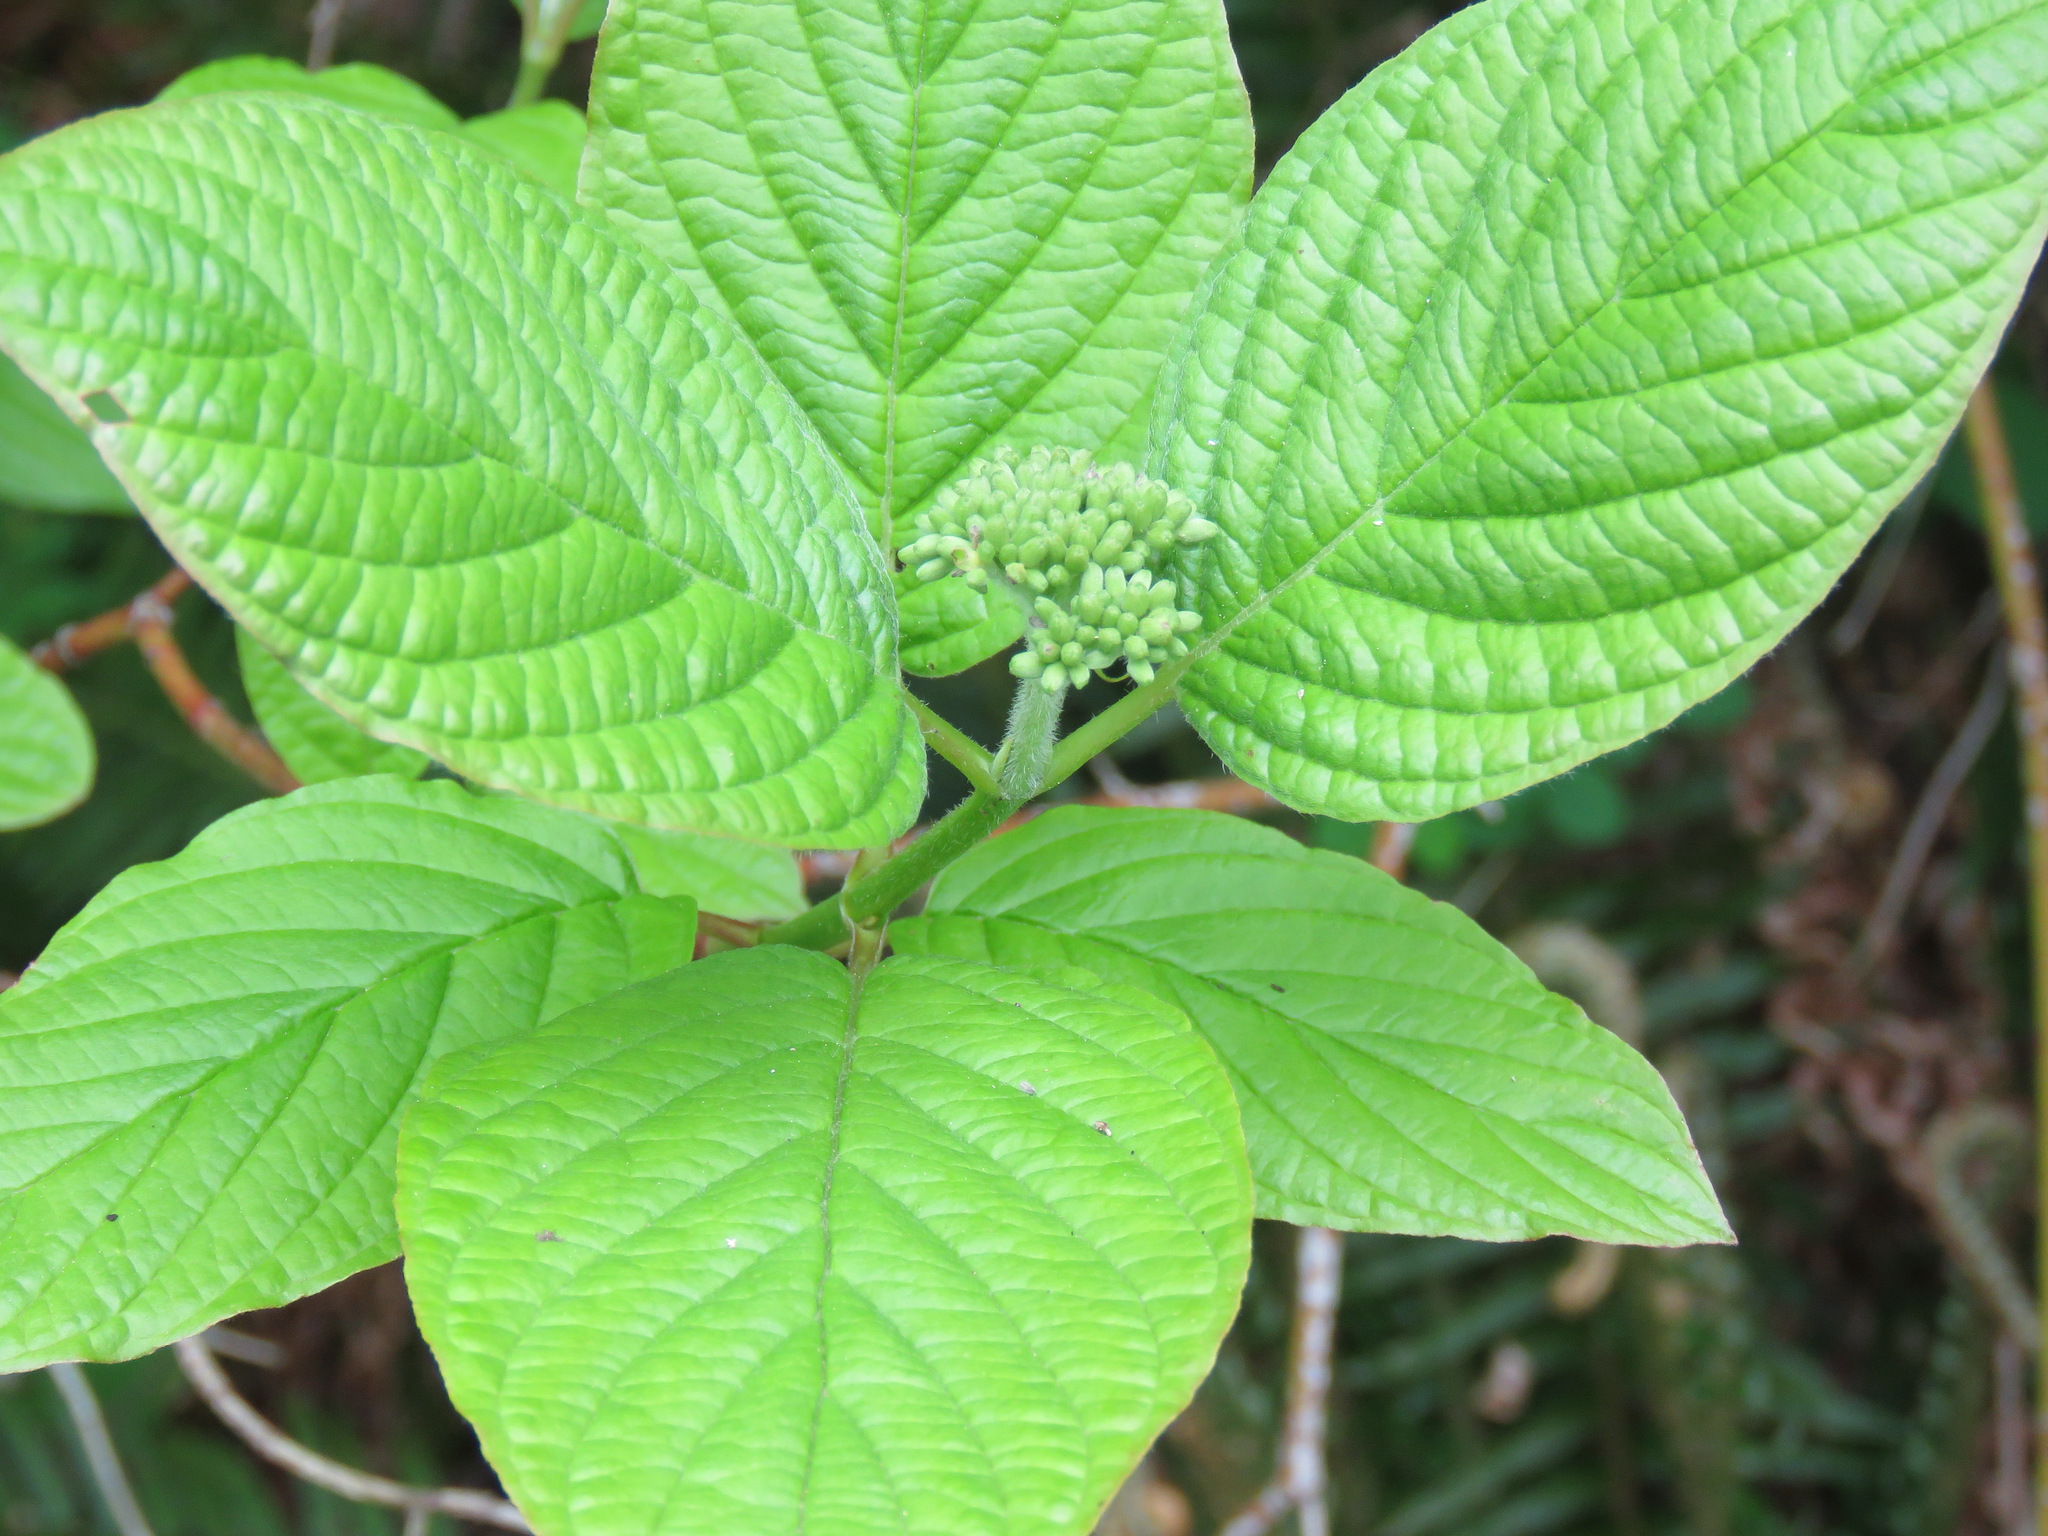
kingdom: Plantae
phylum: Tracheophyta
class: Magnoliopsida
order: Cornales
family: Cornaceae
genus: Cornus
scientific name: Cornus sericea
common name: Red-osier dogwood
